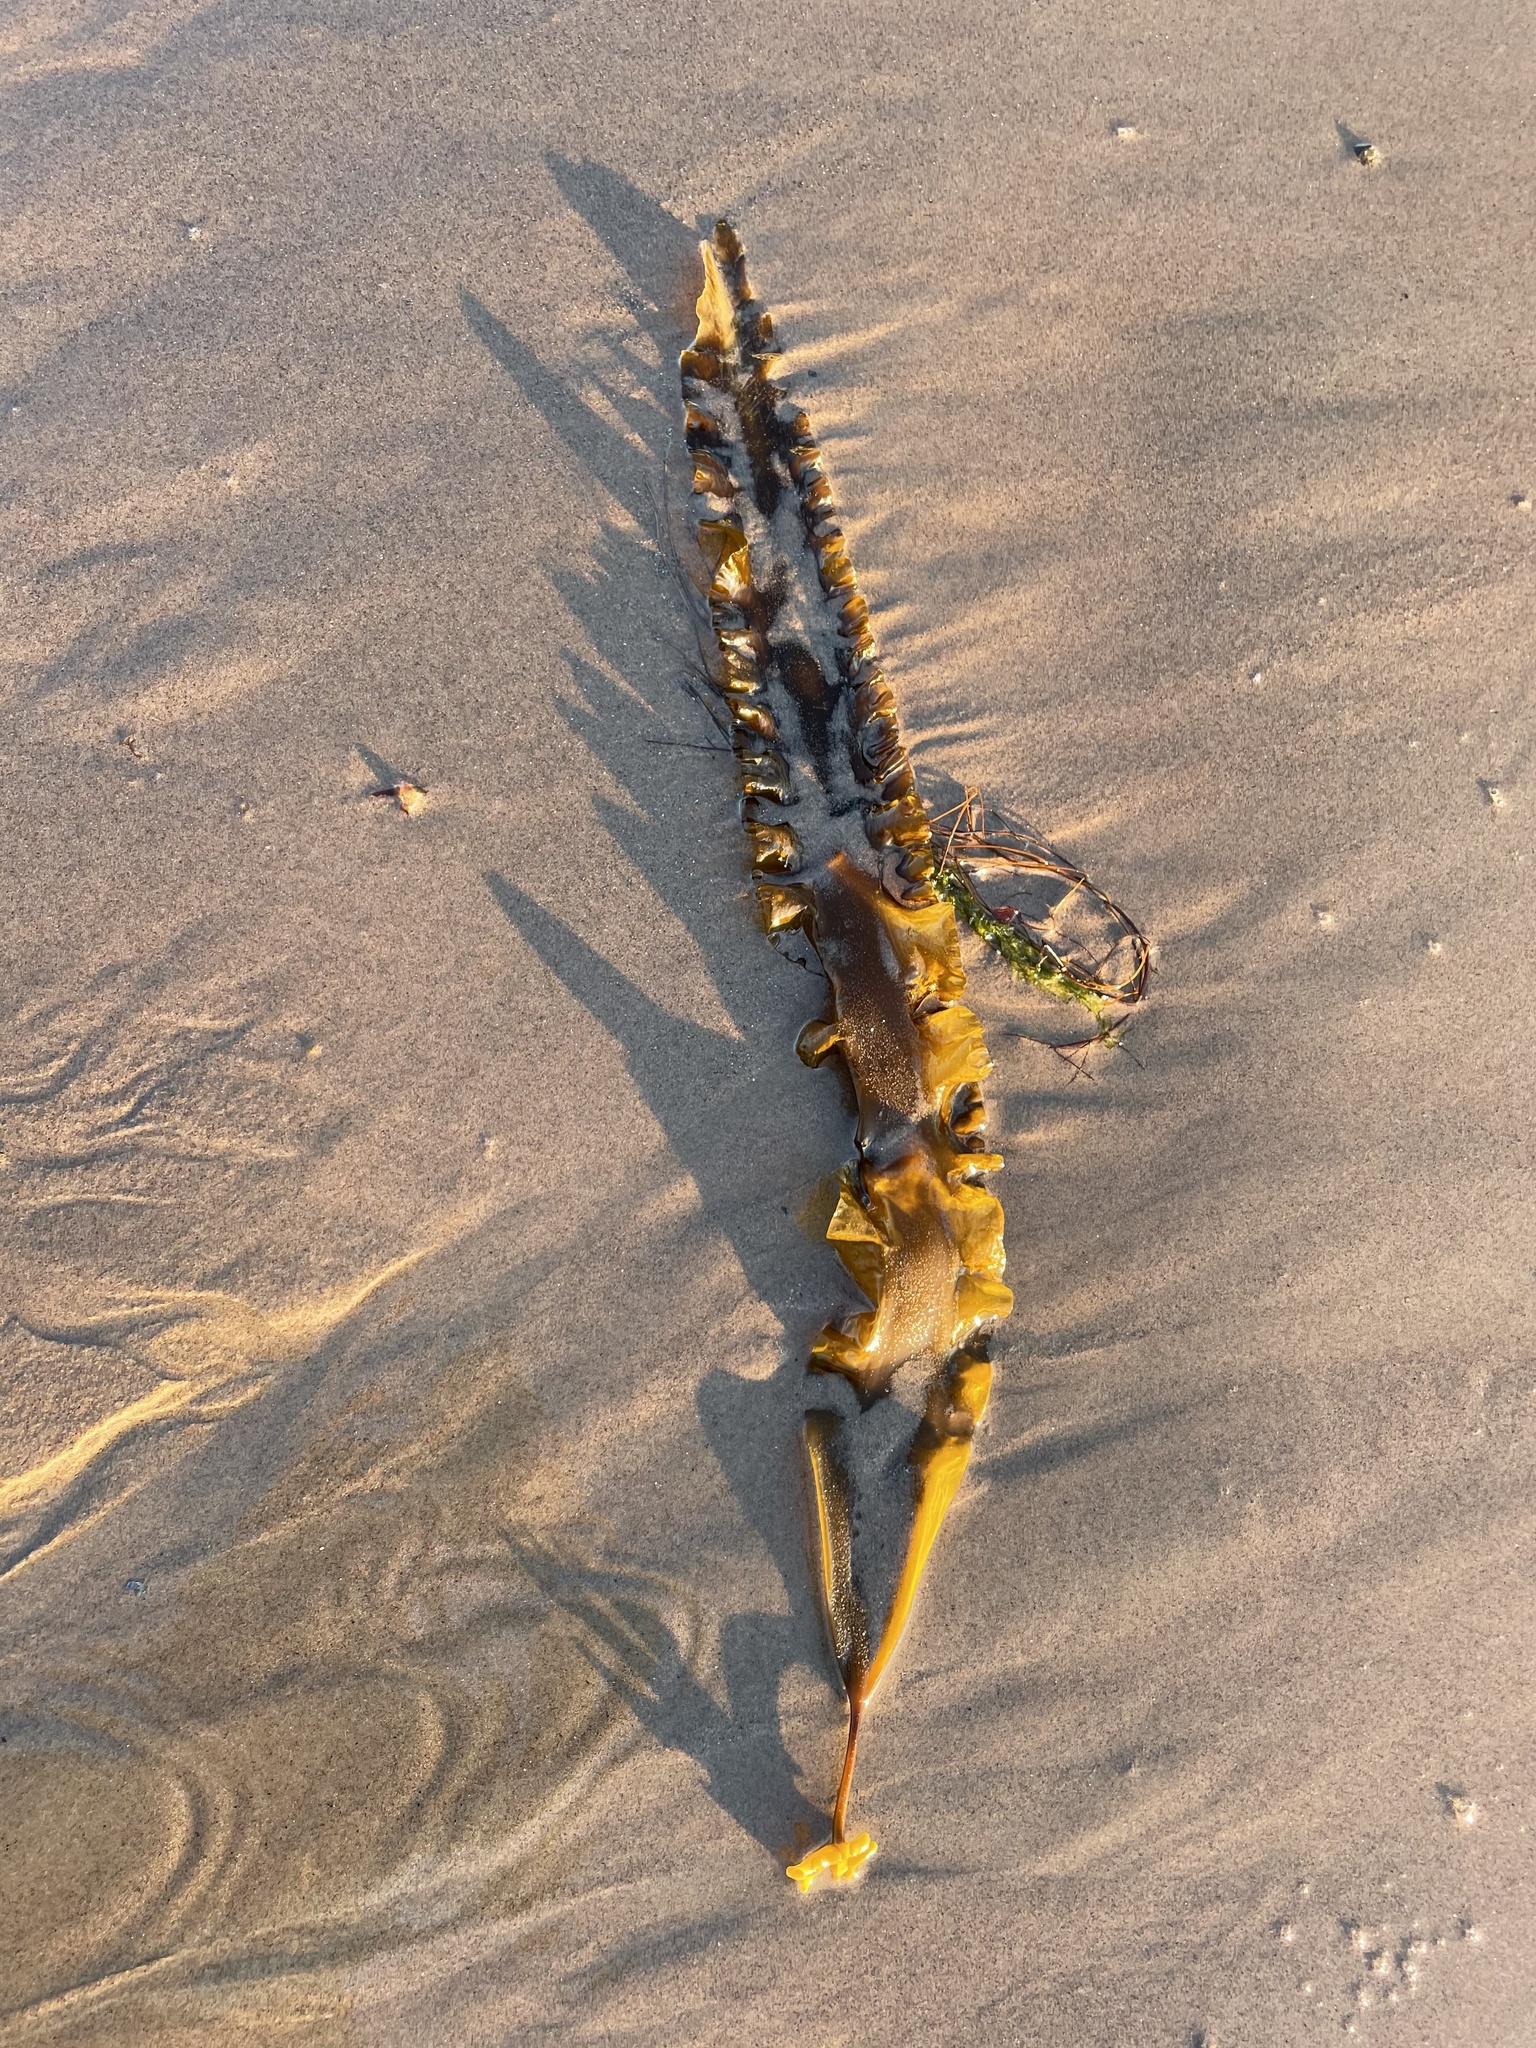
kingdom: Chromista
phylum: Ochrophyta
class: Phaeophyceae
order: Laminariales
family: Laminariaceae
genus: Saccharina
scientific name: Saccharina latissima
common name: Poor man's weather glass
